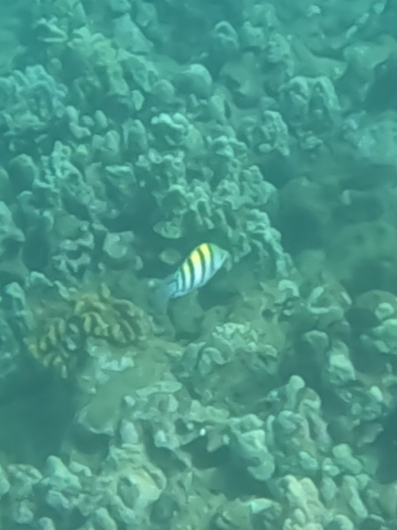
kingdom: Animalia
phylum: Chordata
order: Perciformes
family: Pomacentridae
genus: Abudefduf
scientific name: Abudefduf vaigiensis
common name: Indo-pacific sergeant
